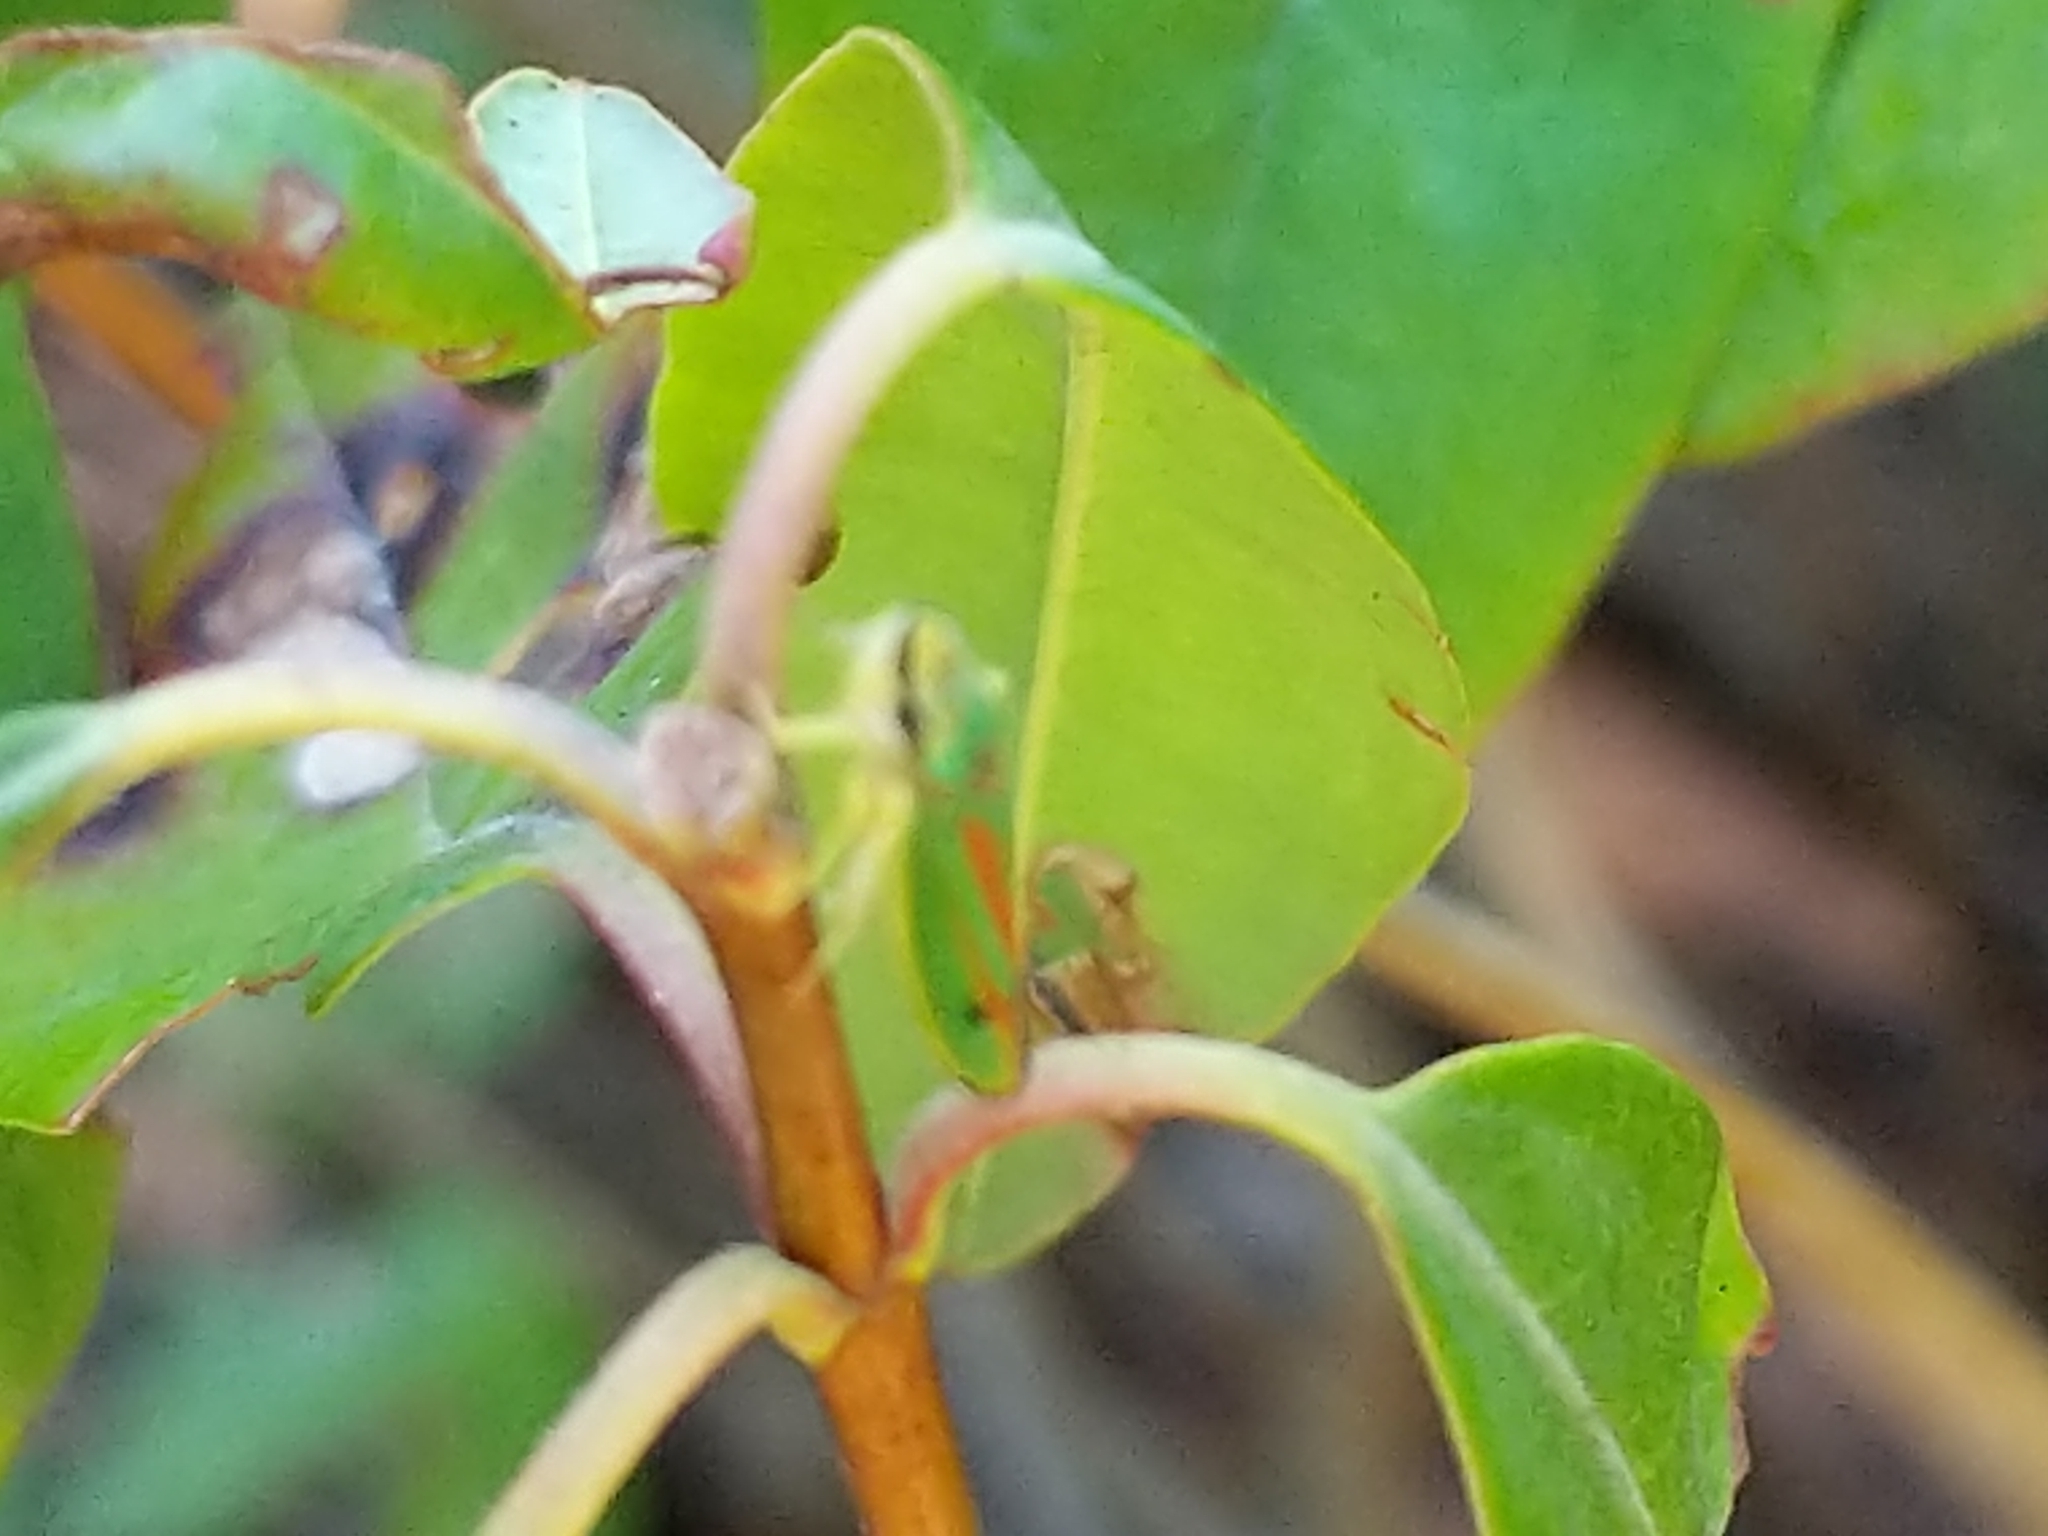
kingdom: Animalia
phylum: Arthropoda
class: Insecta
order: Hemiptera
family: Cicadellidae
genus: Graphocephala
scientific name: Graphocephala fennahi
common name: Rhododendron leafhopper
